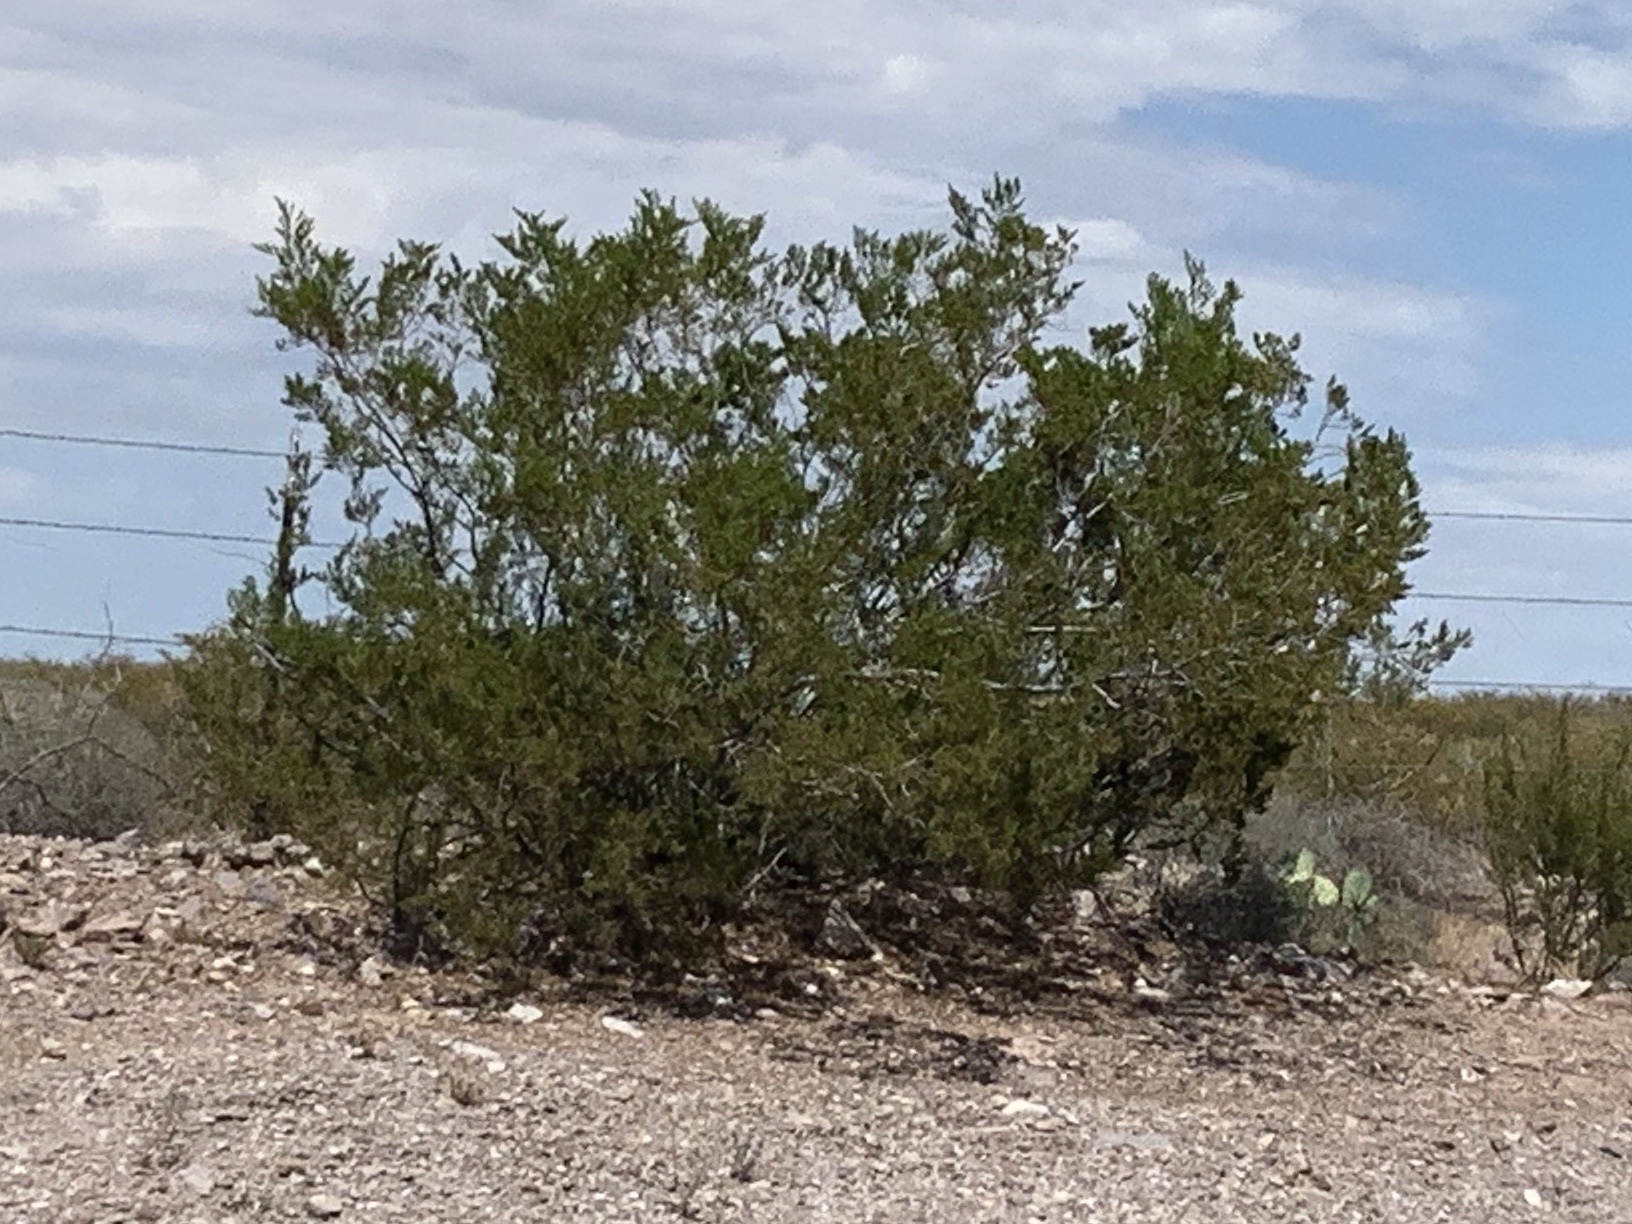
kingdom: Plantae
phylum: Tracheophyta
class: Magnoliopsida
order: Zygophyllales
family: Zygophyllaceae
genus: Larrea
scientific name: Larrea tridentata
